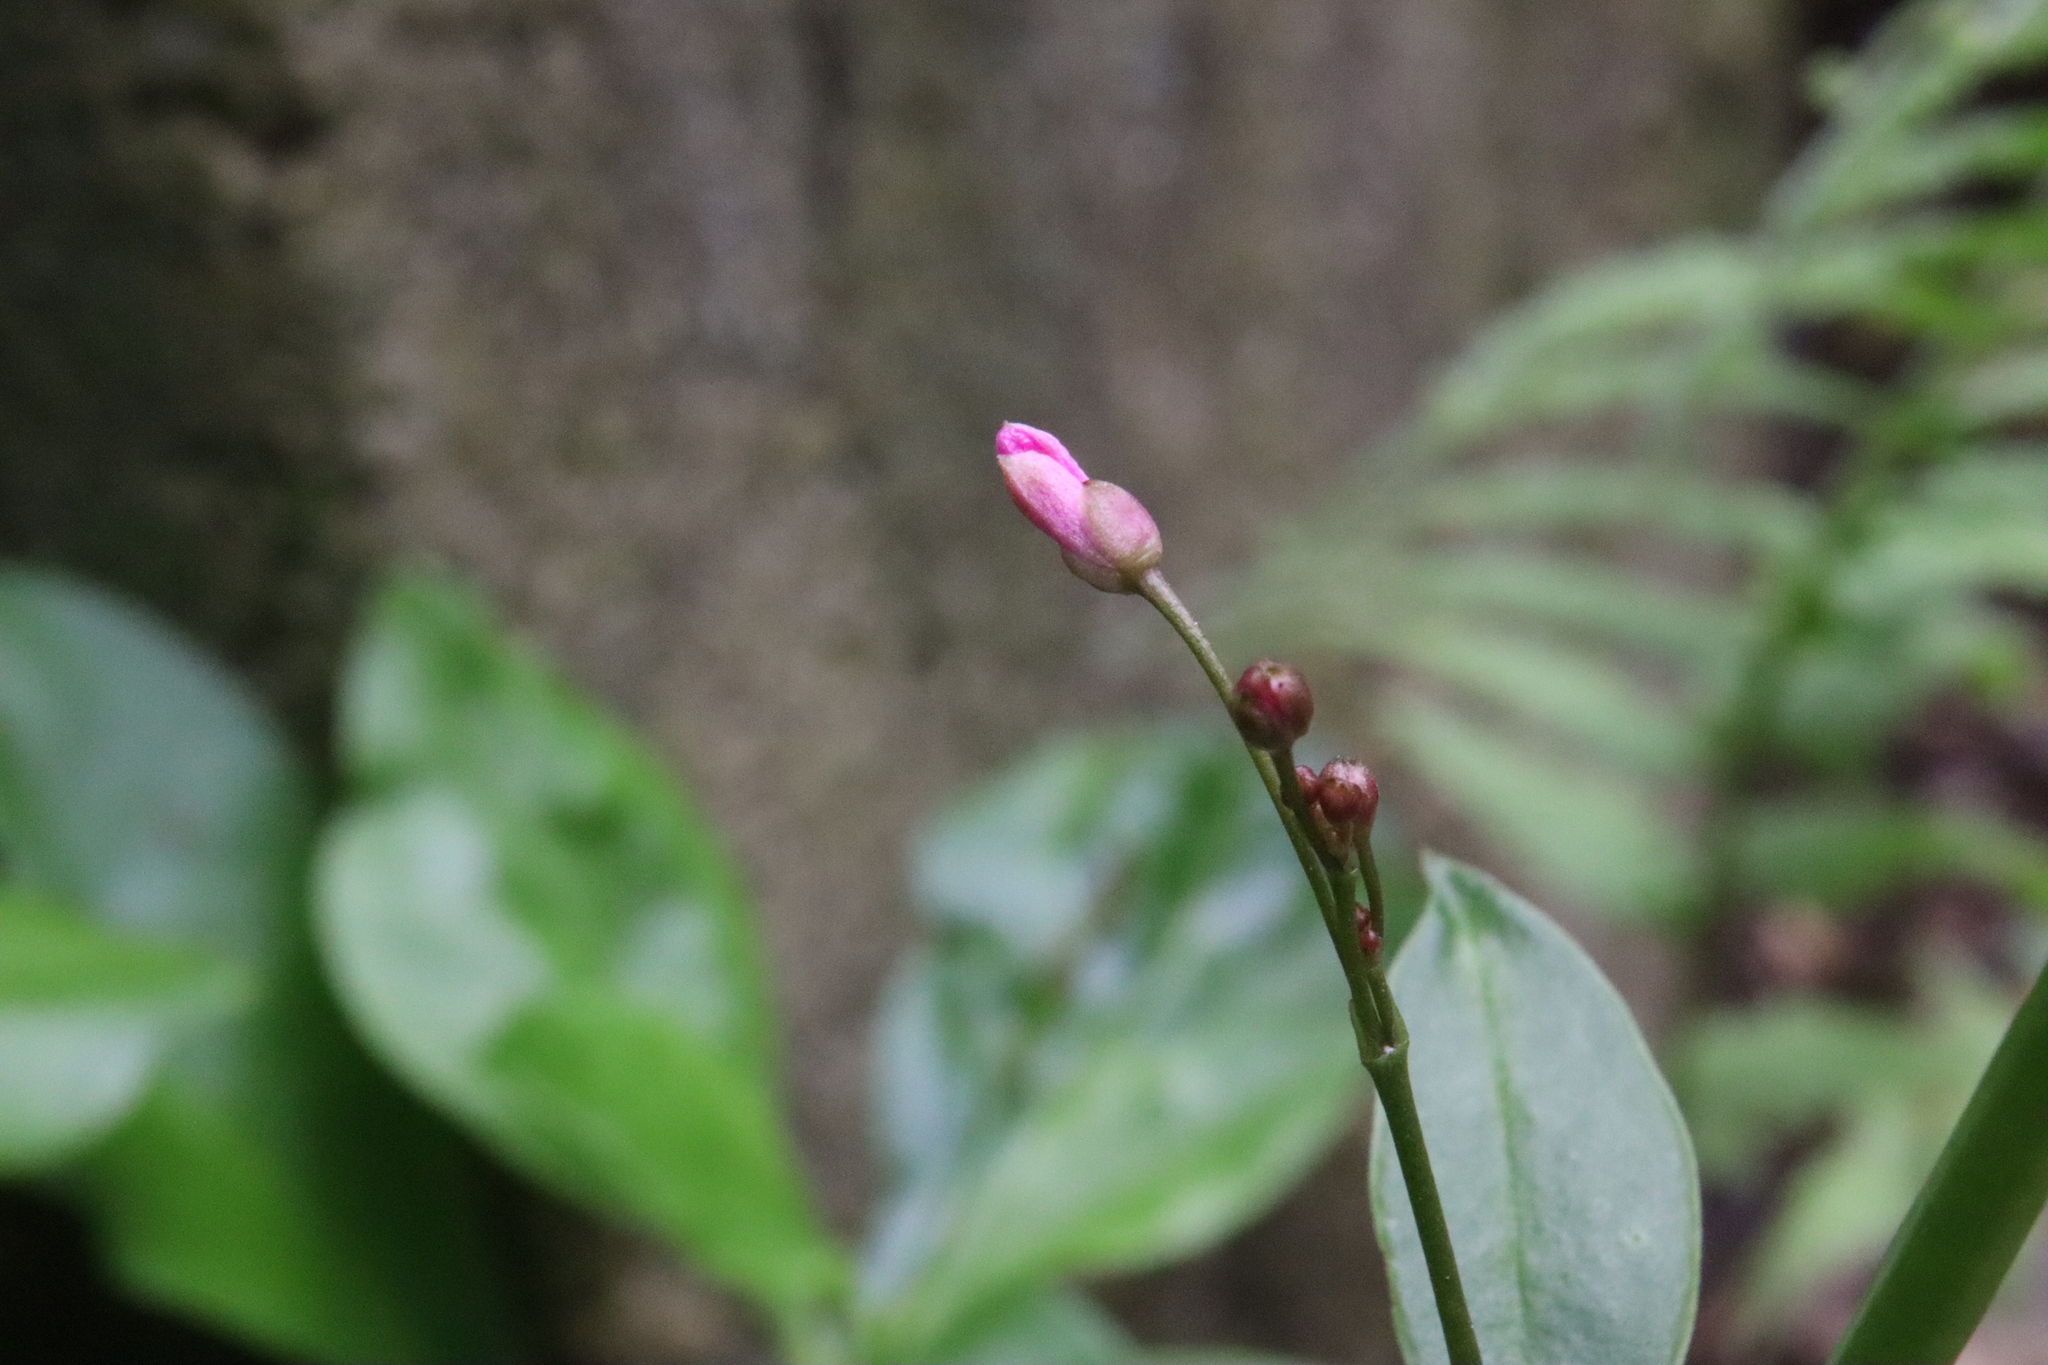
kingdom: Plantae
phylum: Tracheophyta
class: Magnoliopsida
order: Caryophyllales
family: Talinaceae
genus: Talinum
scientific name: Talinum paniculatum
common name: Jewels of opar
